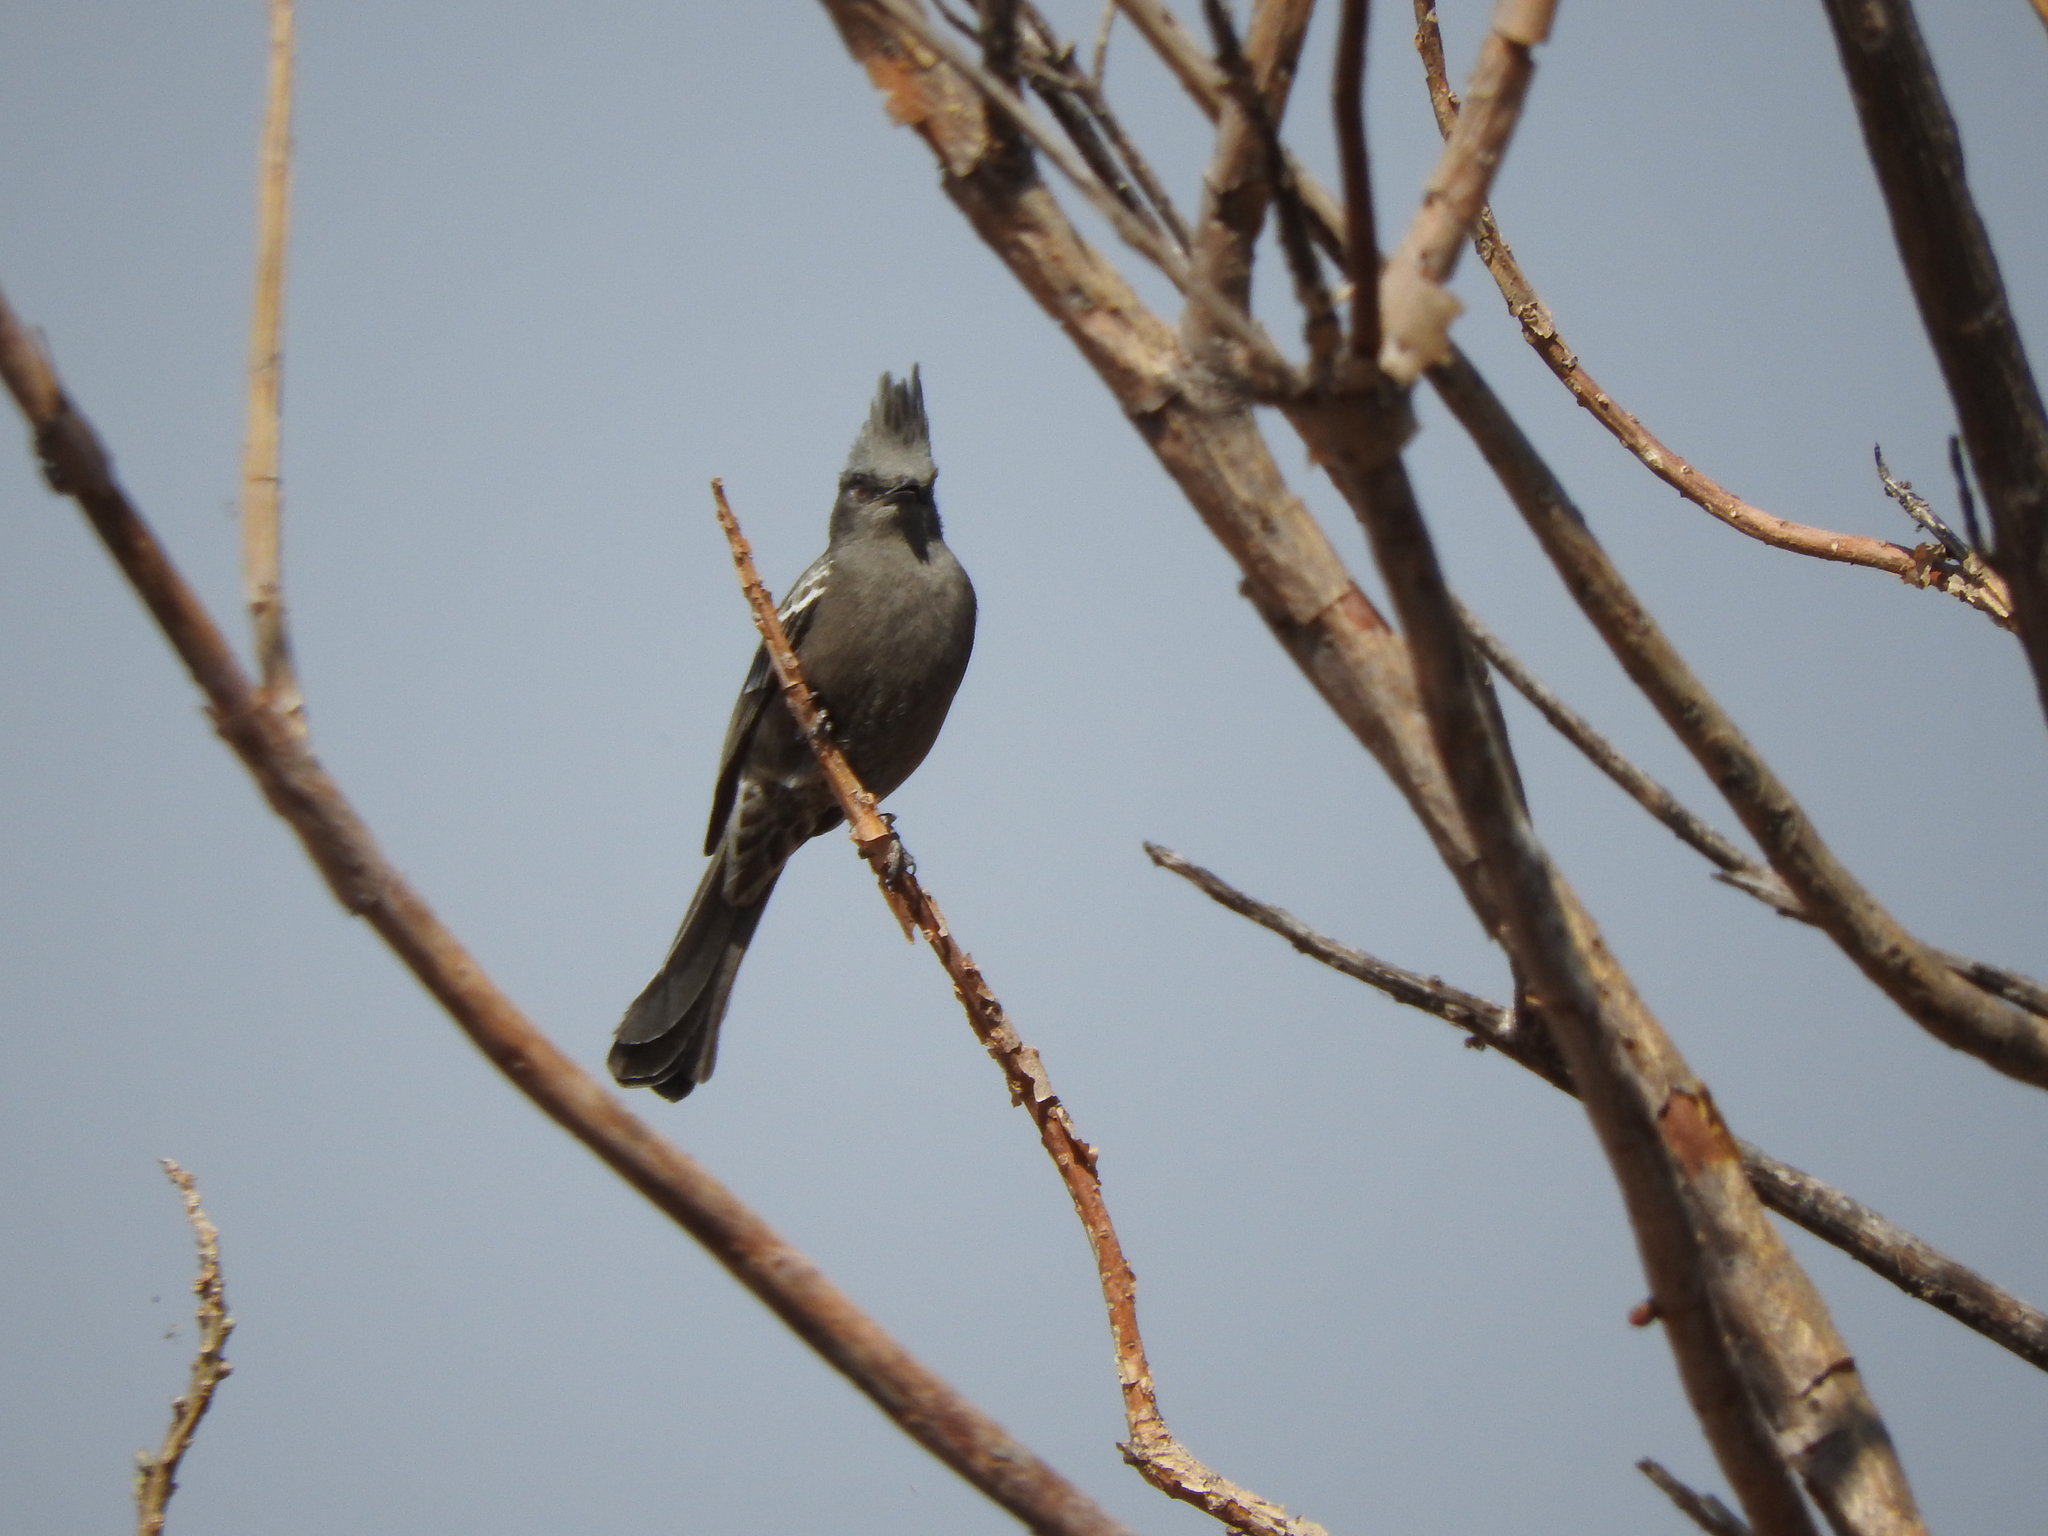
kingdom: Animalia
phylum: Chordata
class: Aves
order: Passeriformes
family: Ptilogonatidae
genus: Phainopepla
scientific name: Phainopepla nitens
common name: Phainopepla
